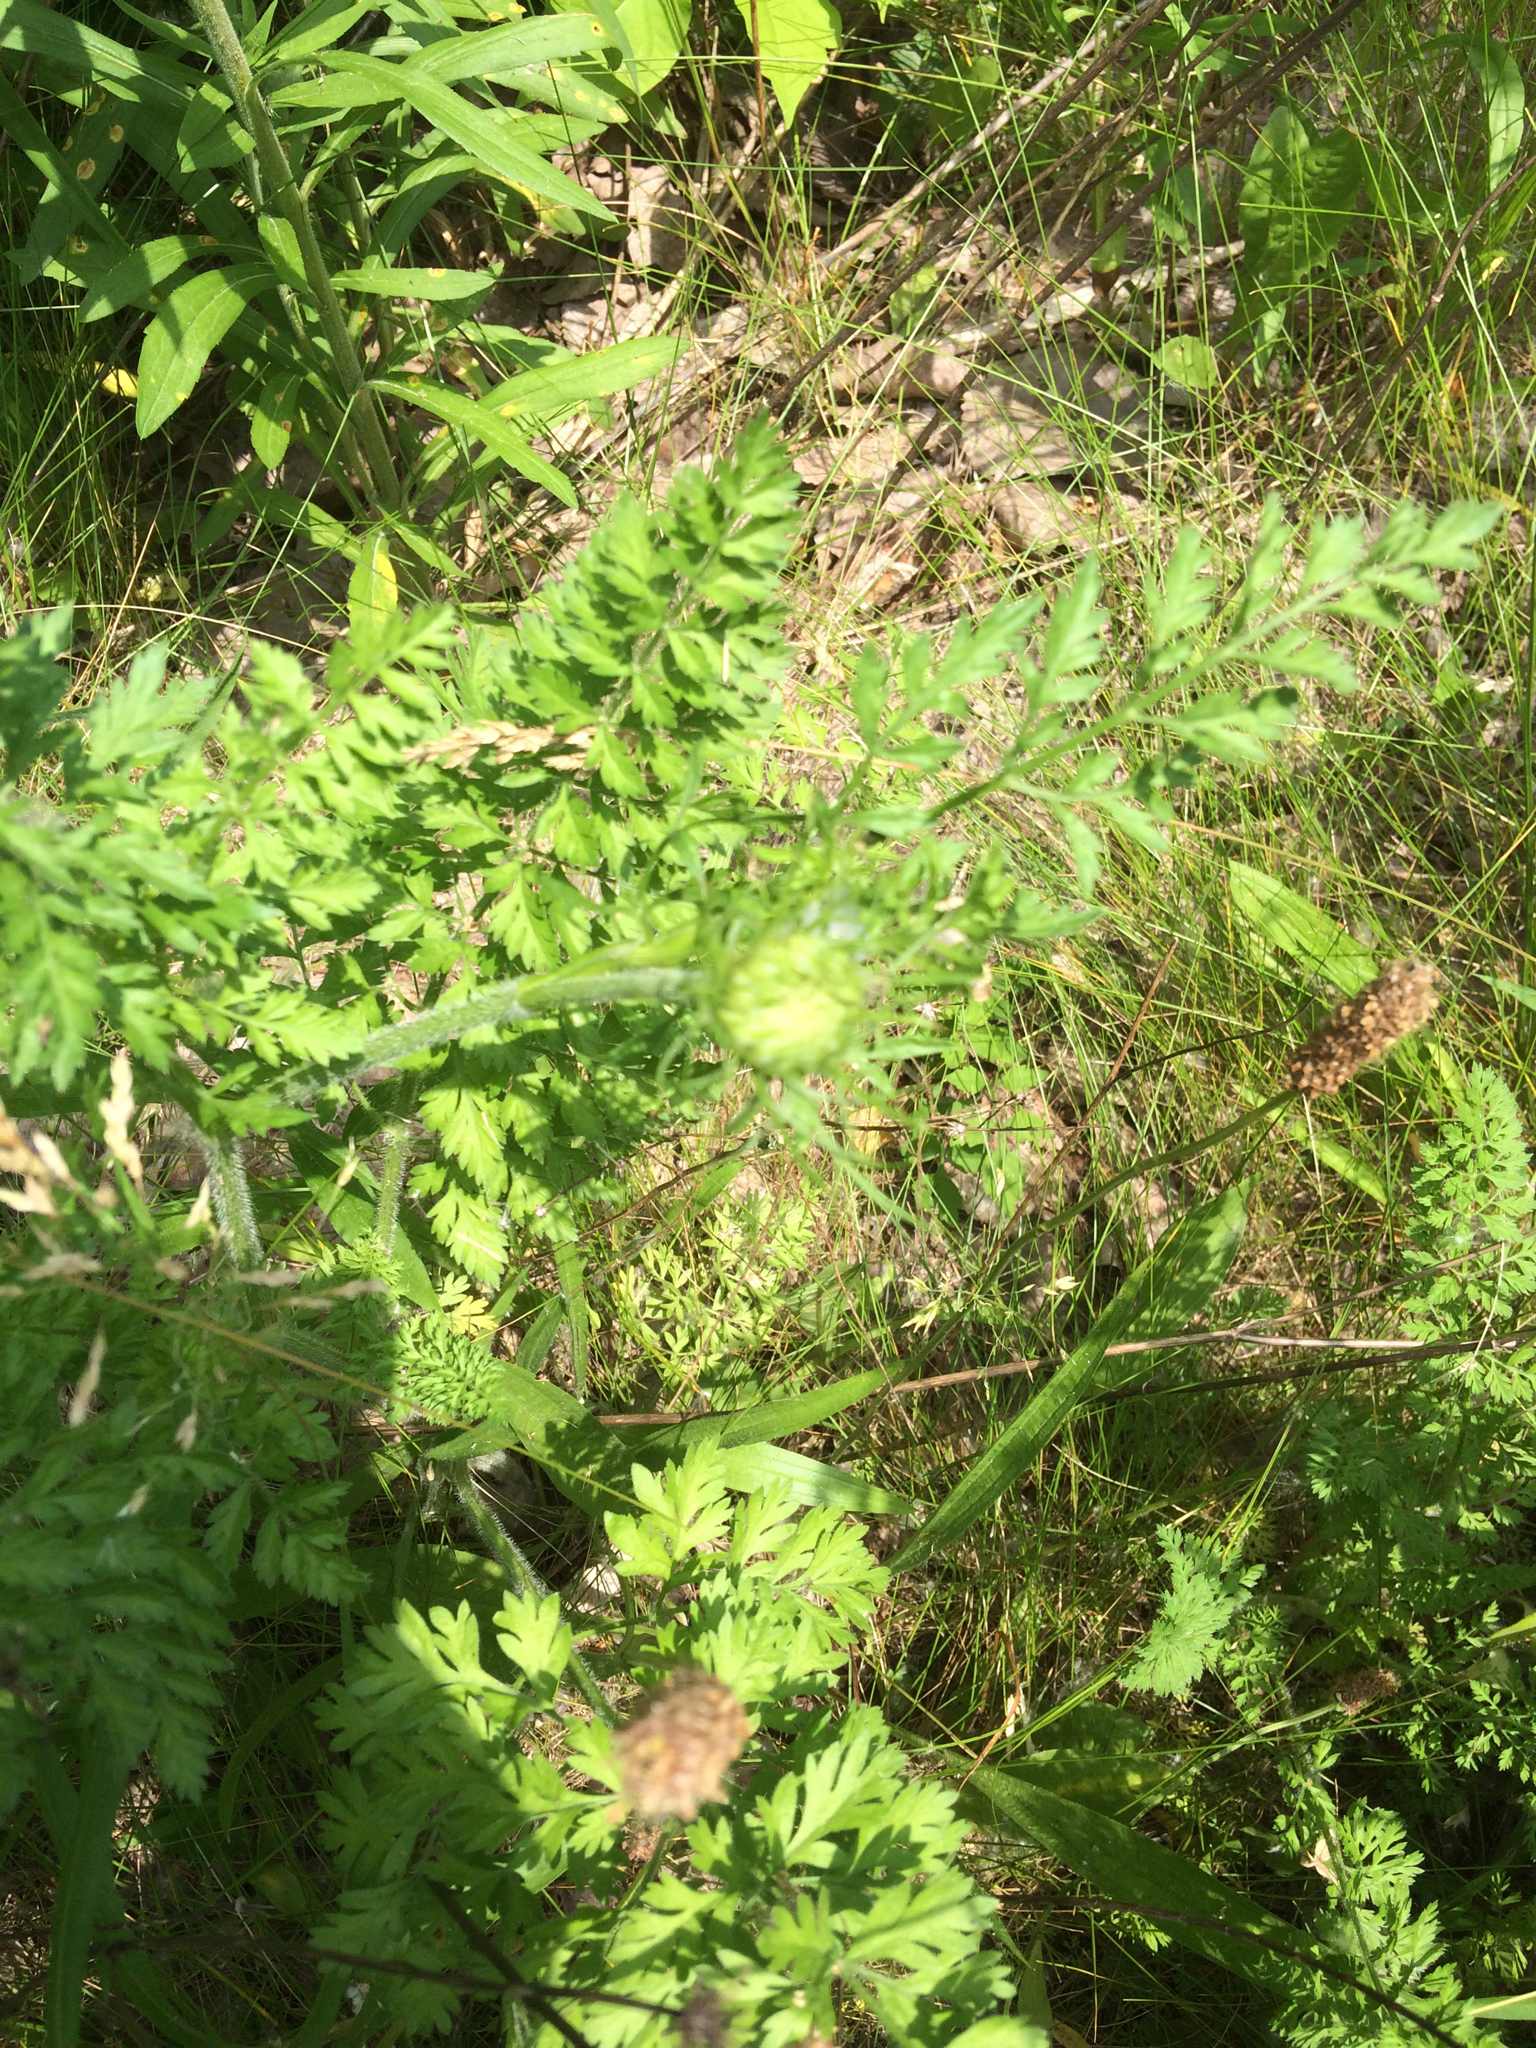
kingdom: Plantae
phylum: Tracheophyta
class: Magnoliopsida
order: Apiales
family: Apiaceae
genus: Daucus
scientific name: Daucus carota
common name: Wild carrot
